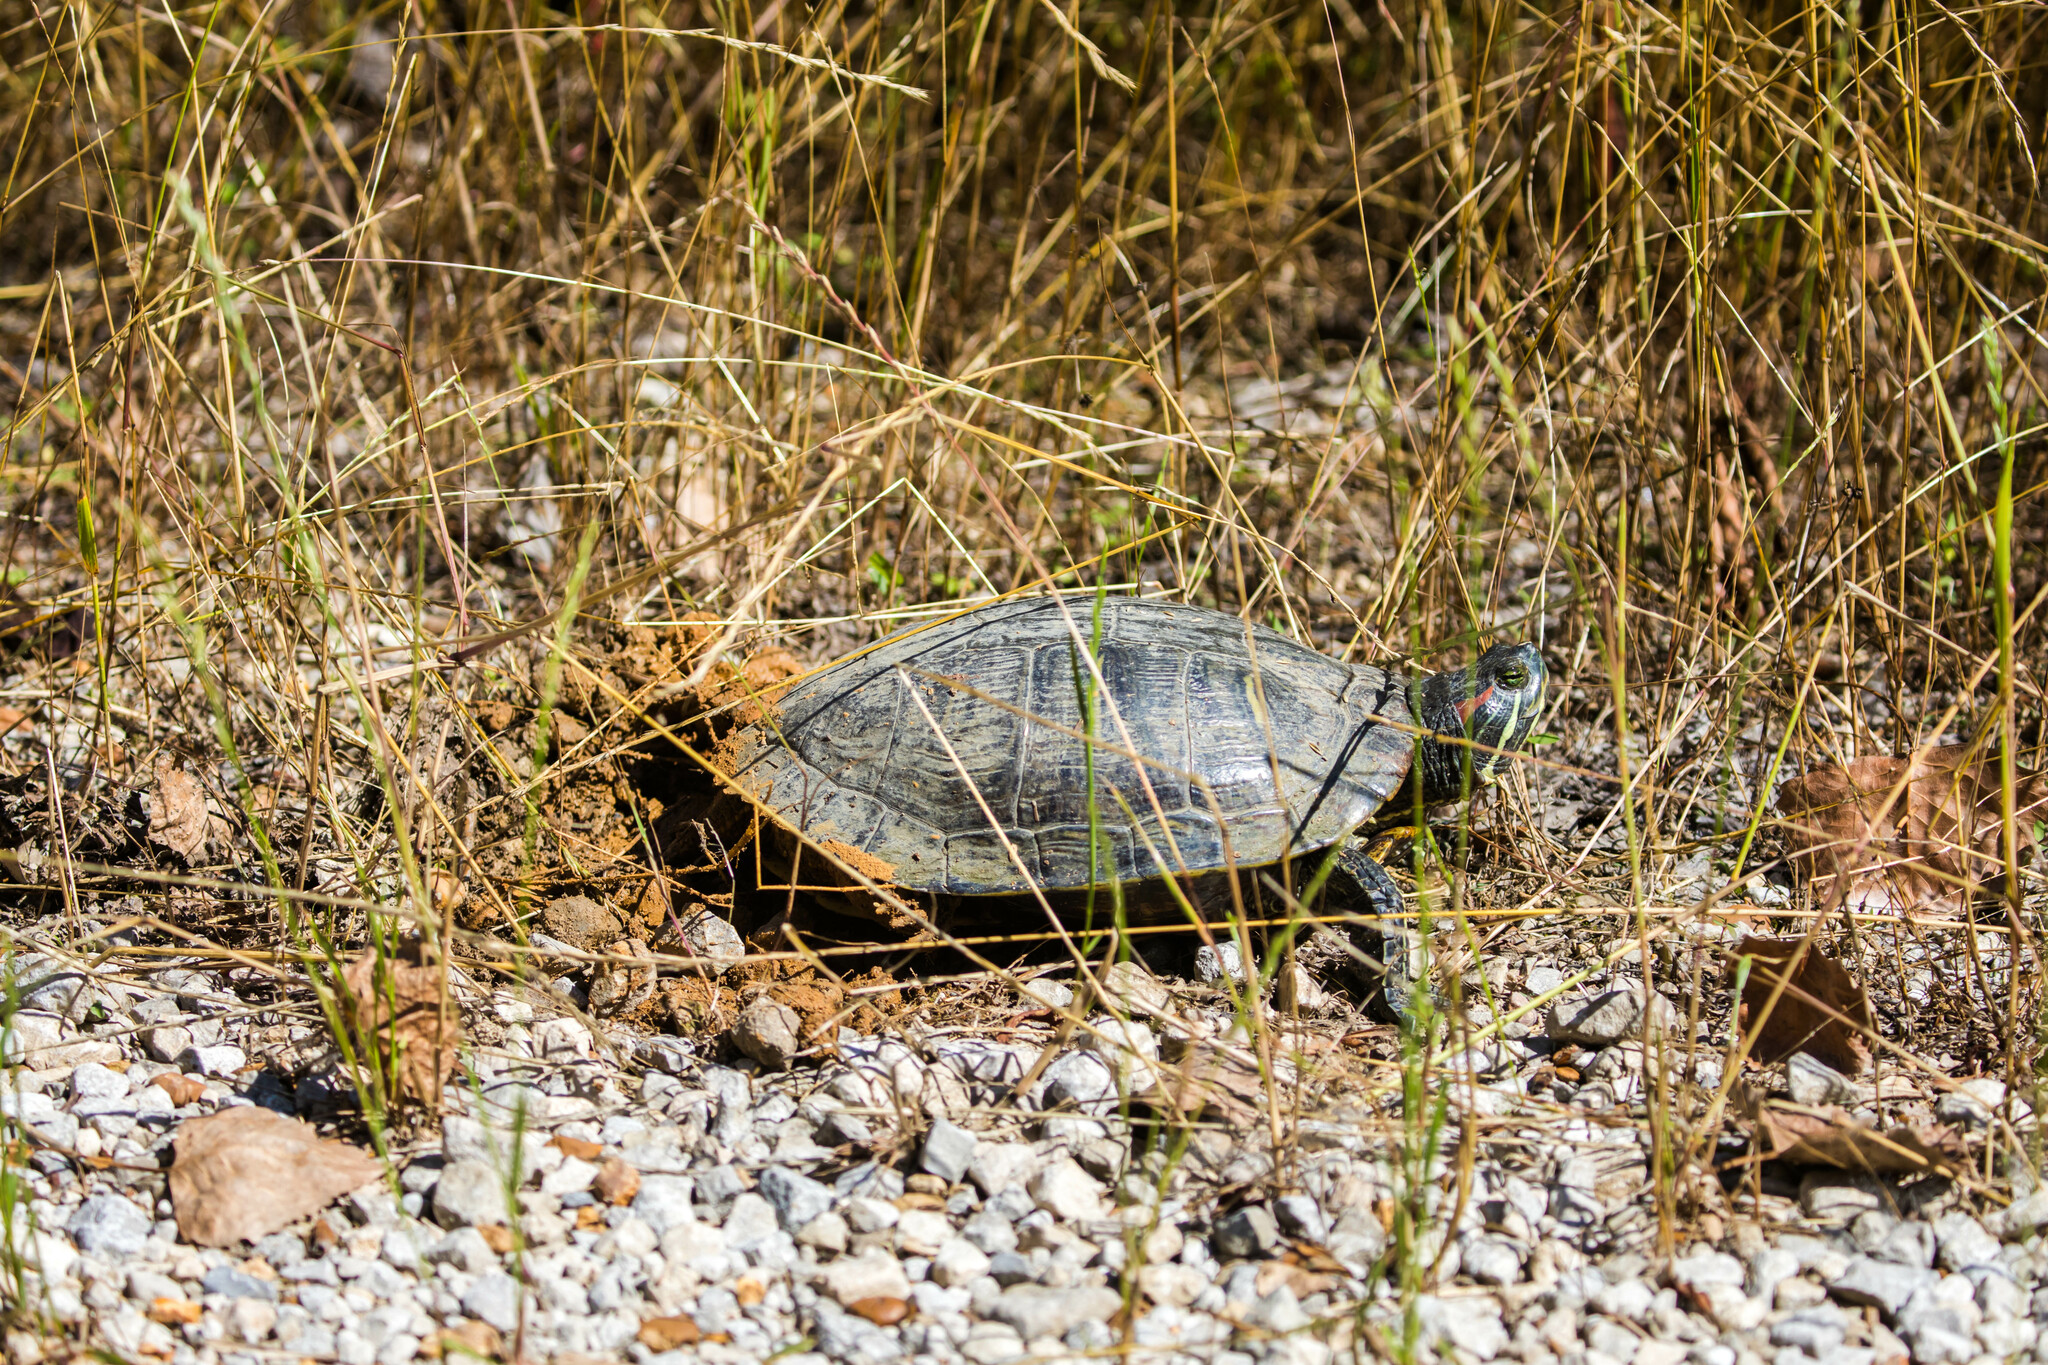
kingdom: Animalia
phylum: Chordata
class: Testudines
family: Emydidae
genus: Trachemys
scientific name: Trachemys scripta
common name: Slider
